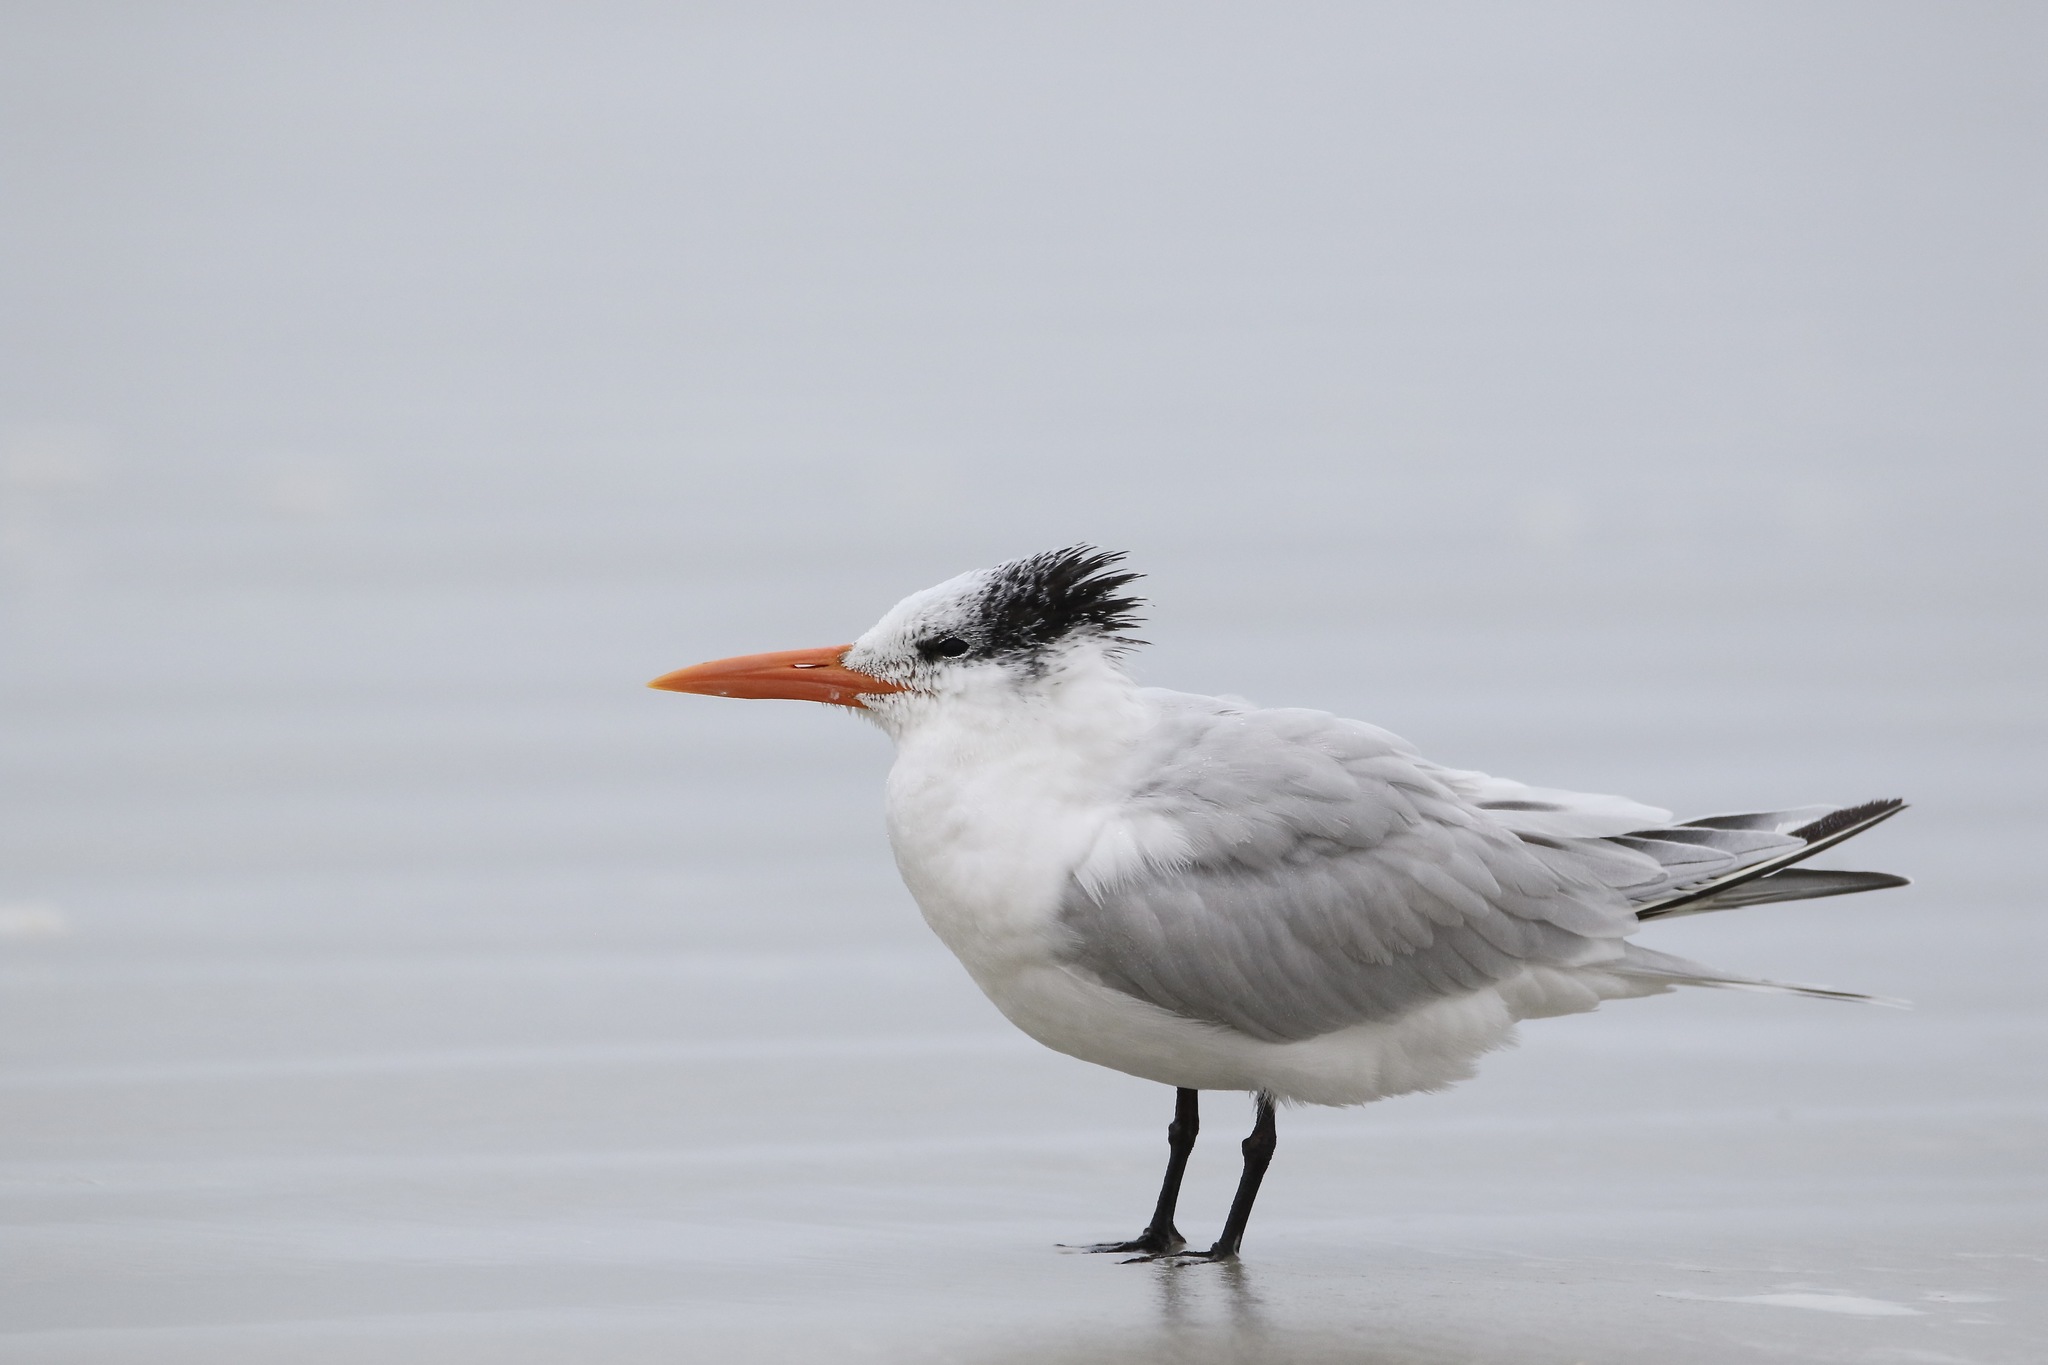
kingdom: Animalia
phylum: Chordata
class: Aves
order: Charadriiformes
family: Laridae
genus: Thalasseus
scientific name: Thalasseus maximus
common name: Royal tern
